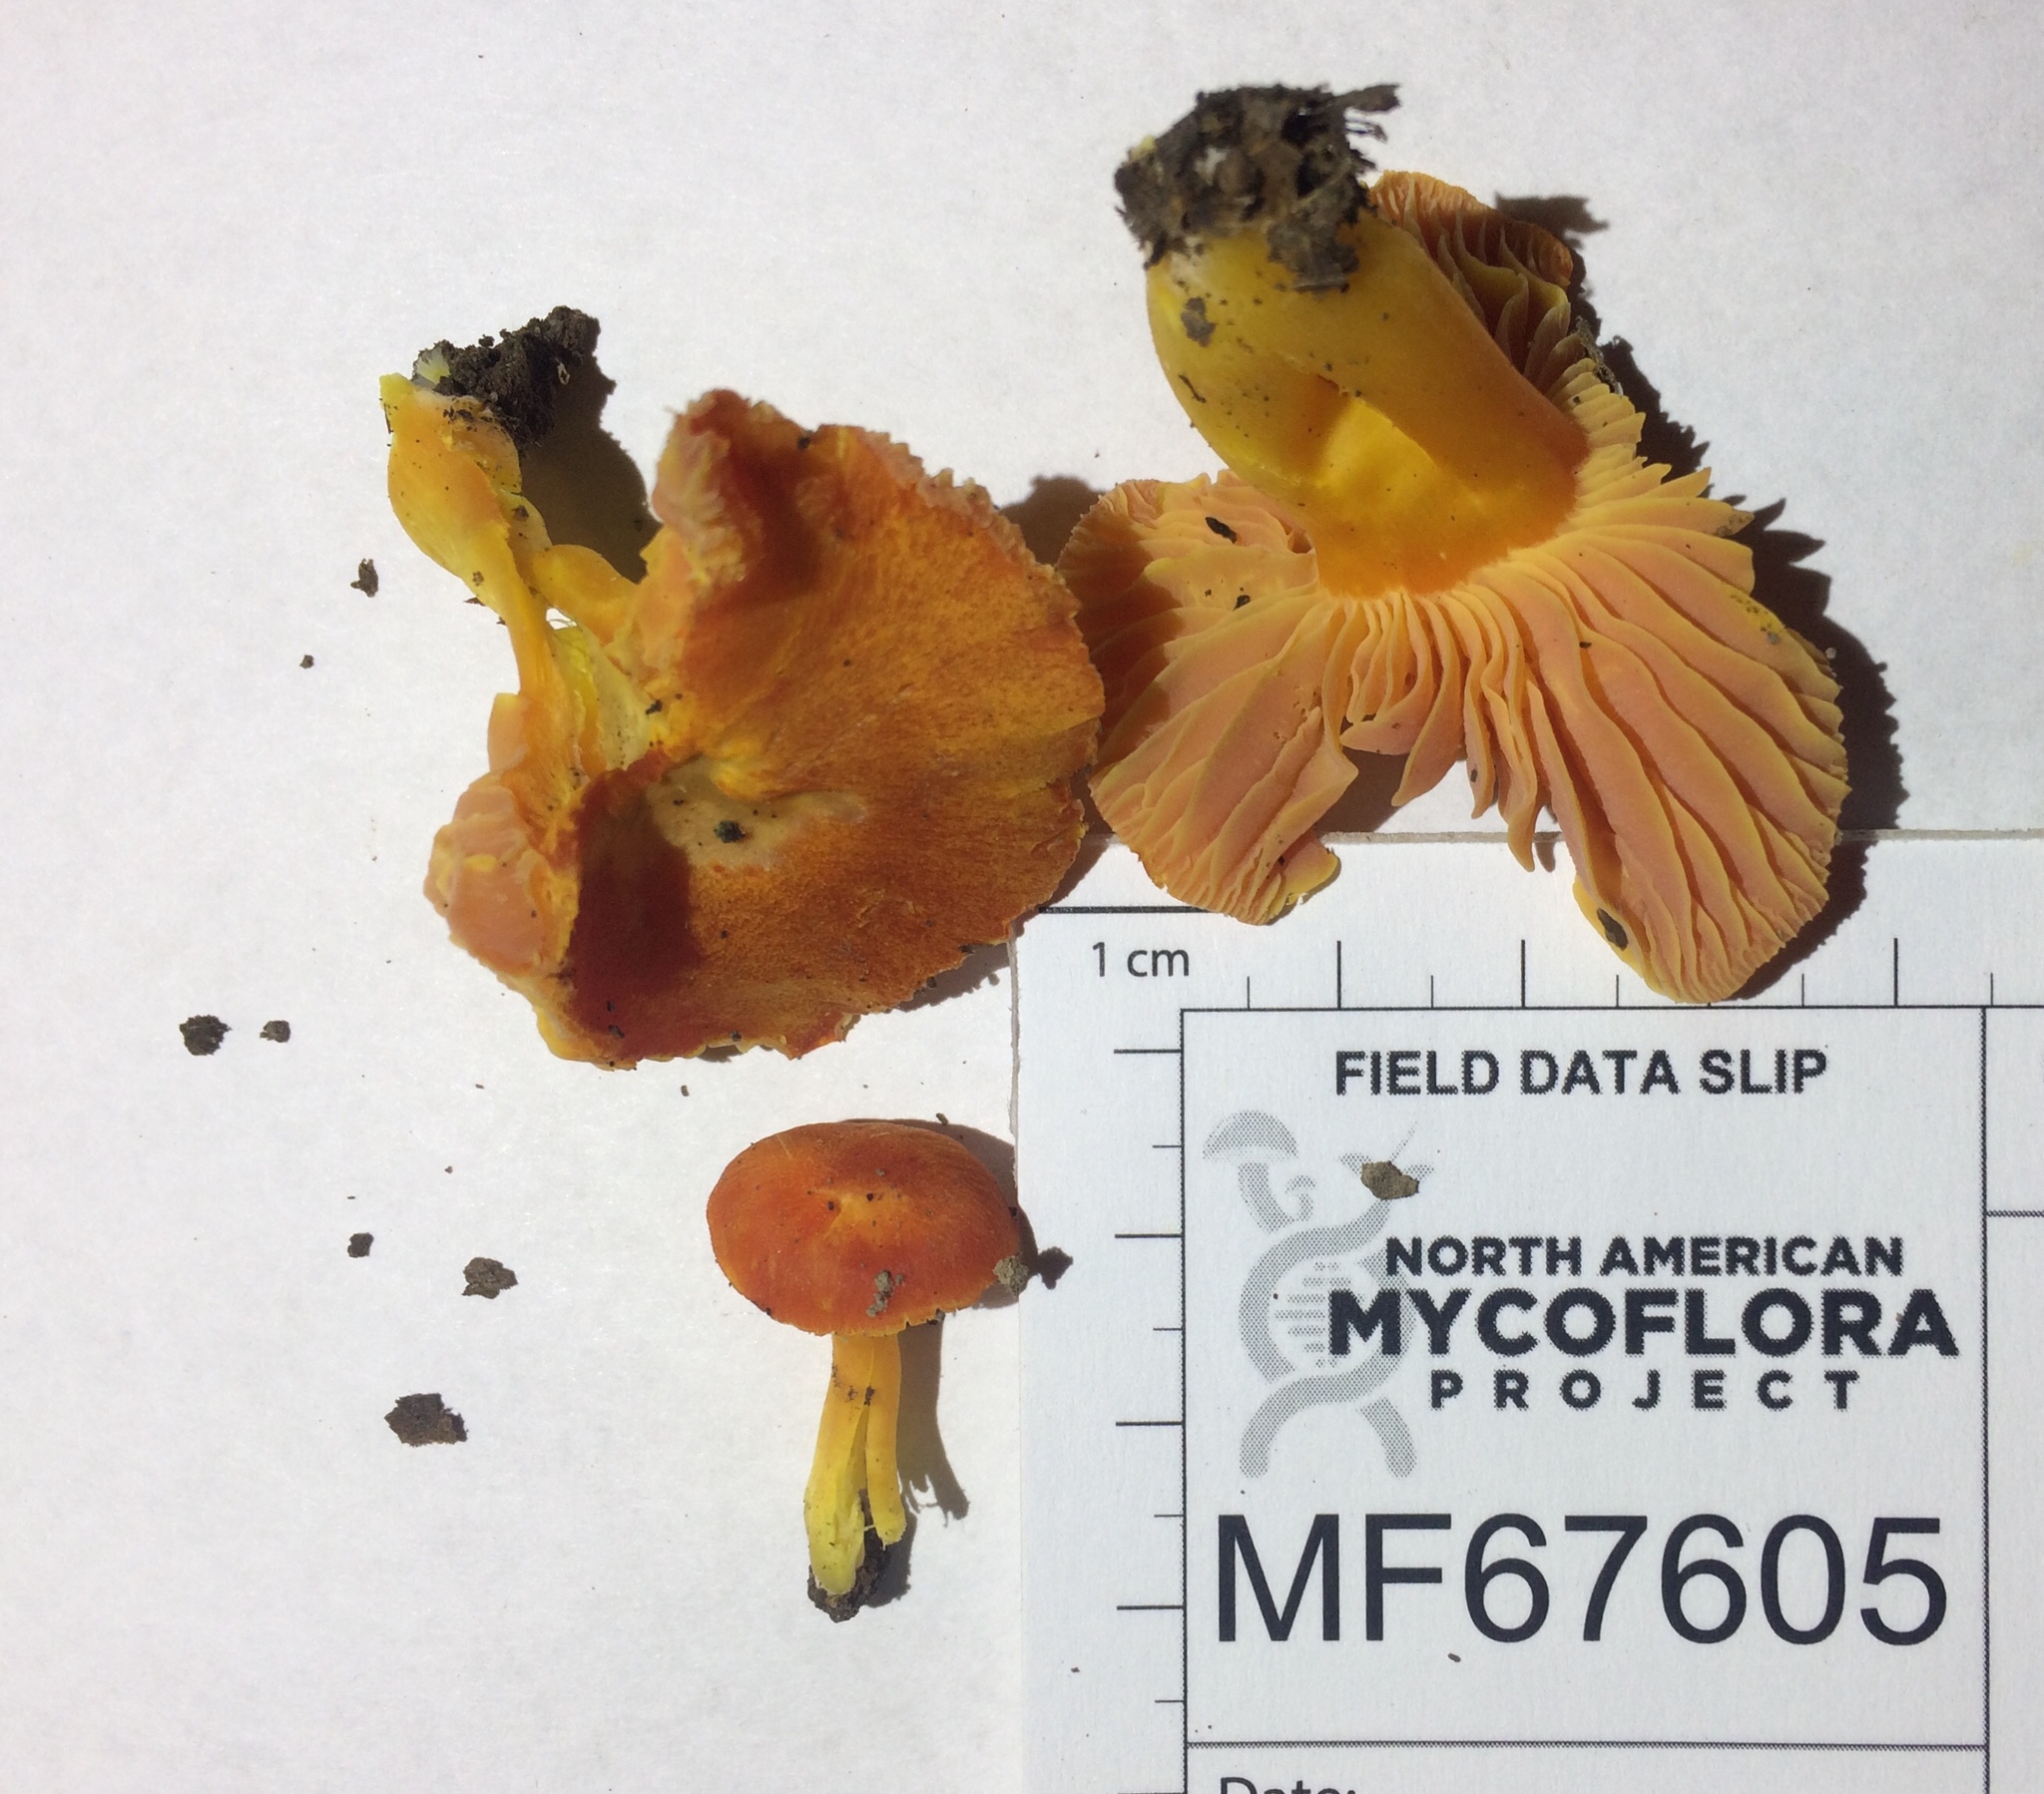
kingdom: Fungi
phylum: Basidiomycota
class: Agaricomycetes
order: Agaricales
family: Hygrophoraceae
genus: Hygrocybe
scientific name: Hygrocybe aurantiosplendens
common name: Orange waxcap
